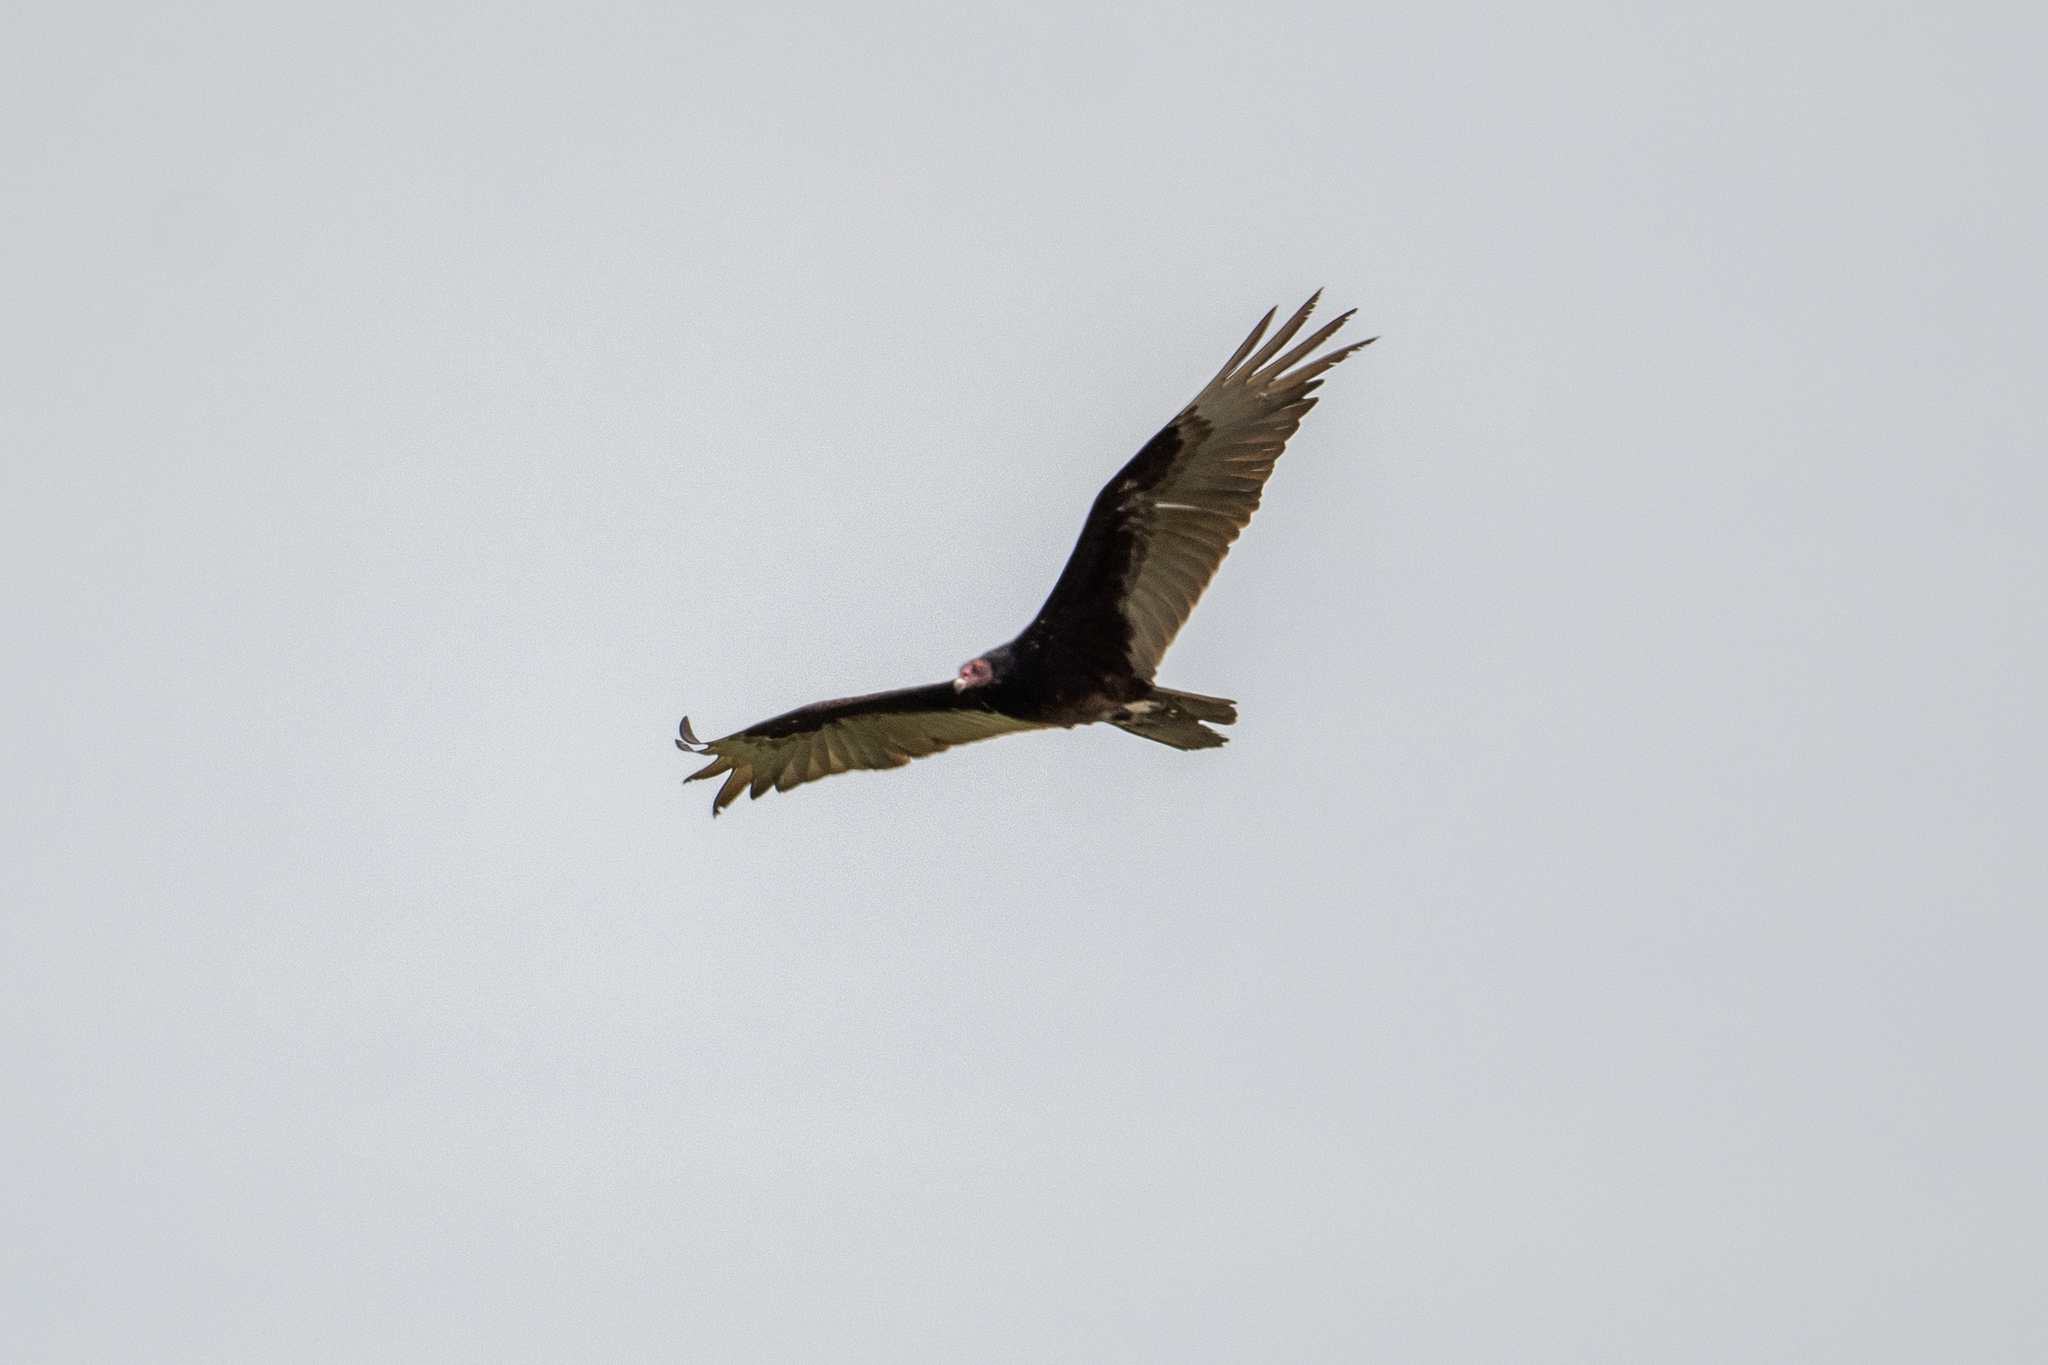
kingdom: Animalia
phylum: Chordata
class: Aves
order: Accipitriformes
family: Cathartidae
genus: Cathartes
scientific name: Cathartes aura
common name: Turkey vulture
